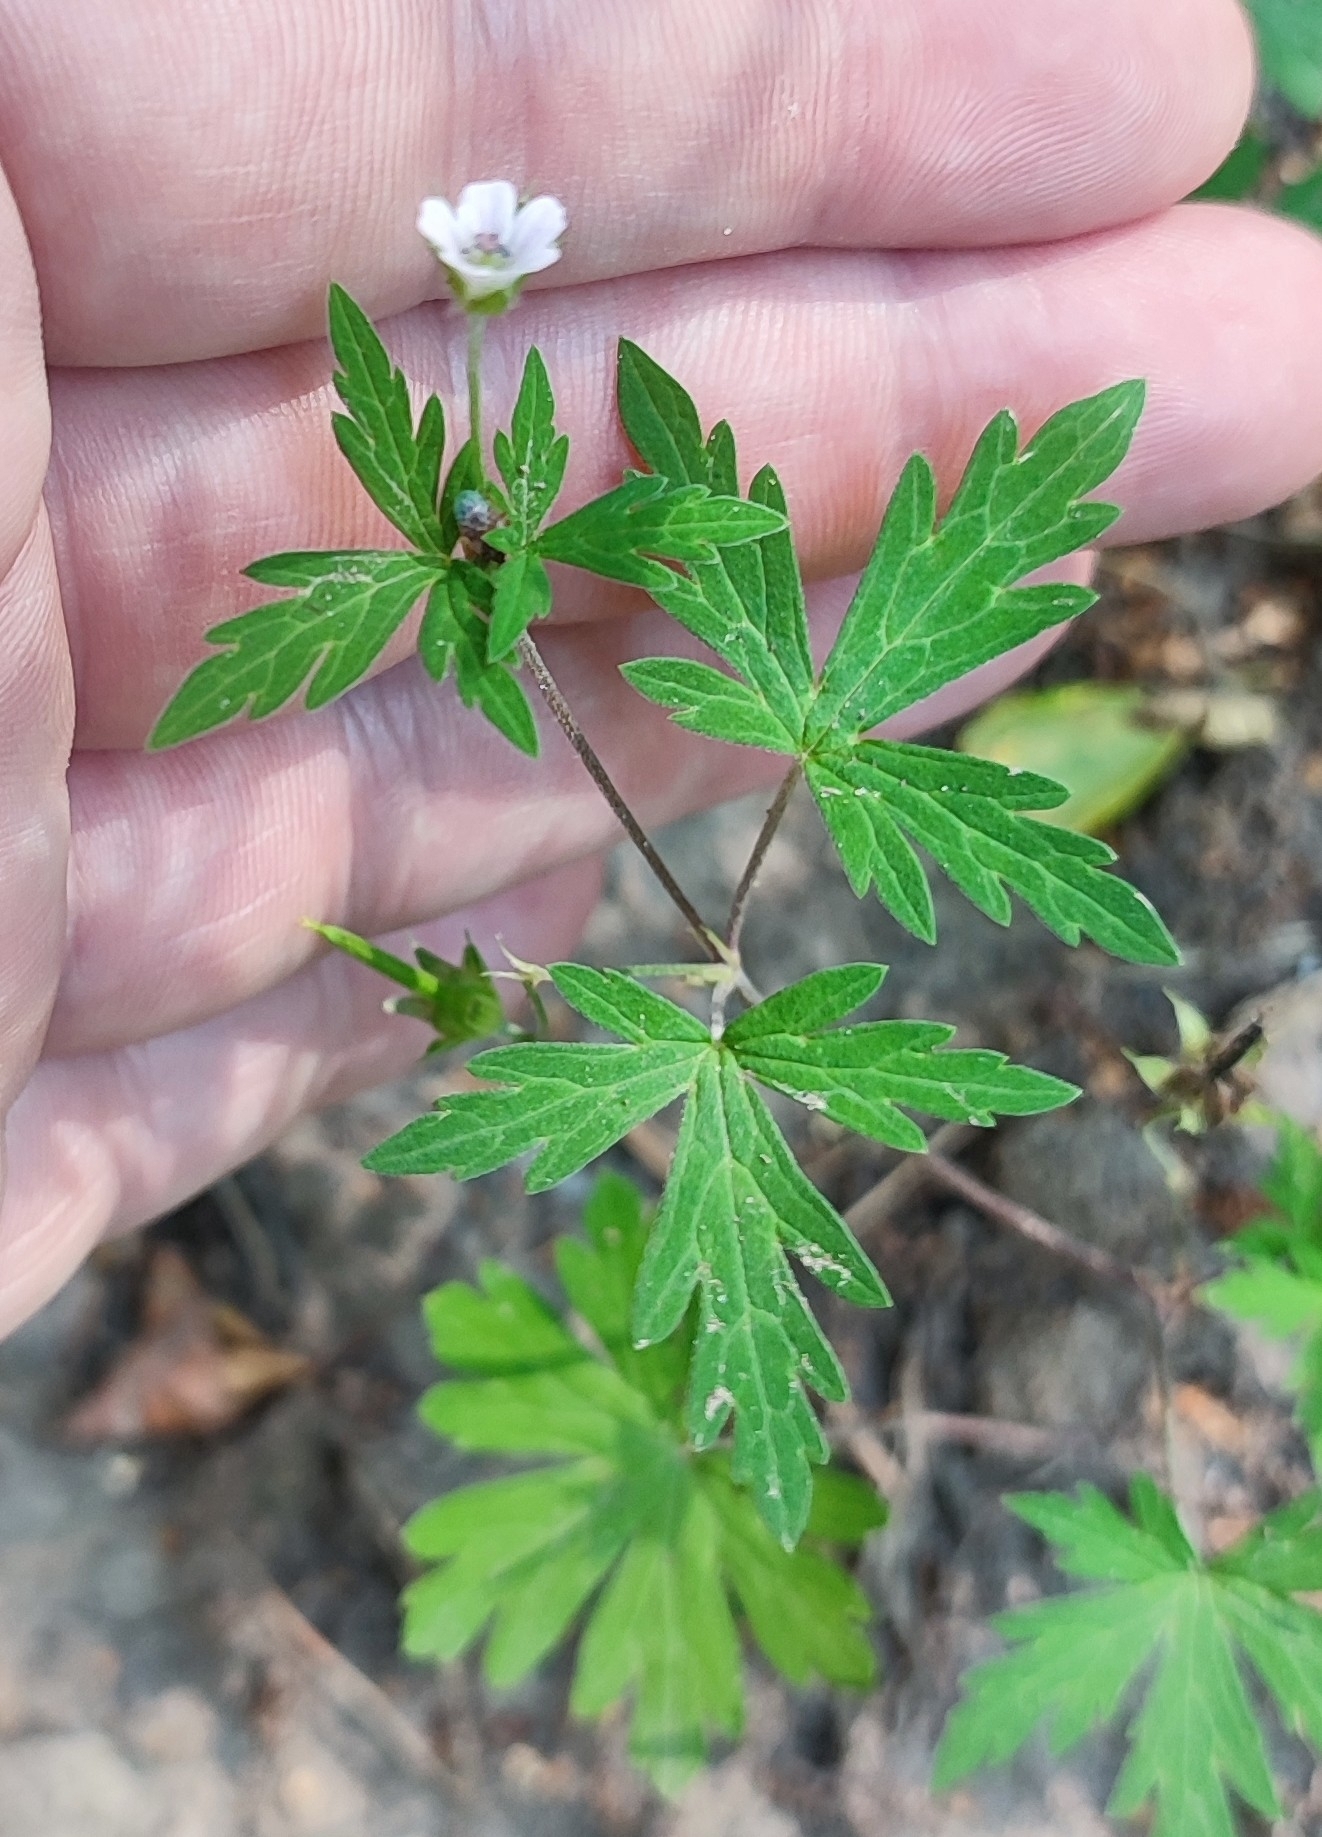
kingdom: Plantae
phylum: Tracheophyta
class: Magnoliopsida
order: Geraniales
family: Geraniaceae
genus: Geranium
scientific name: Geranium sibiricum
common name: Siberian crane's-bill
